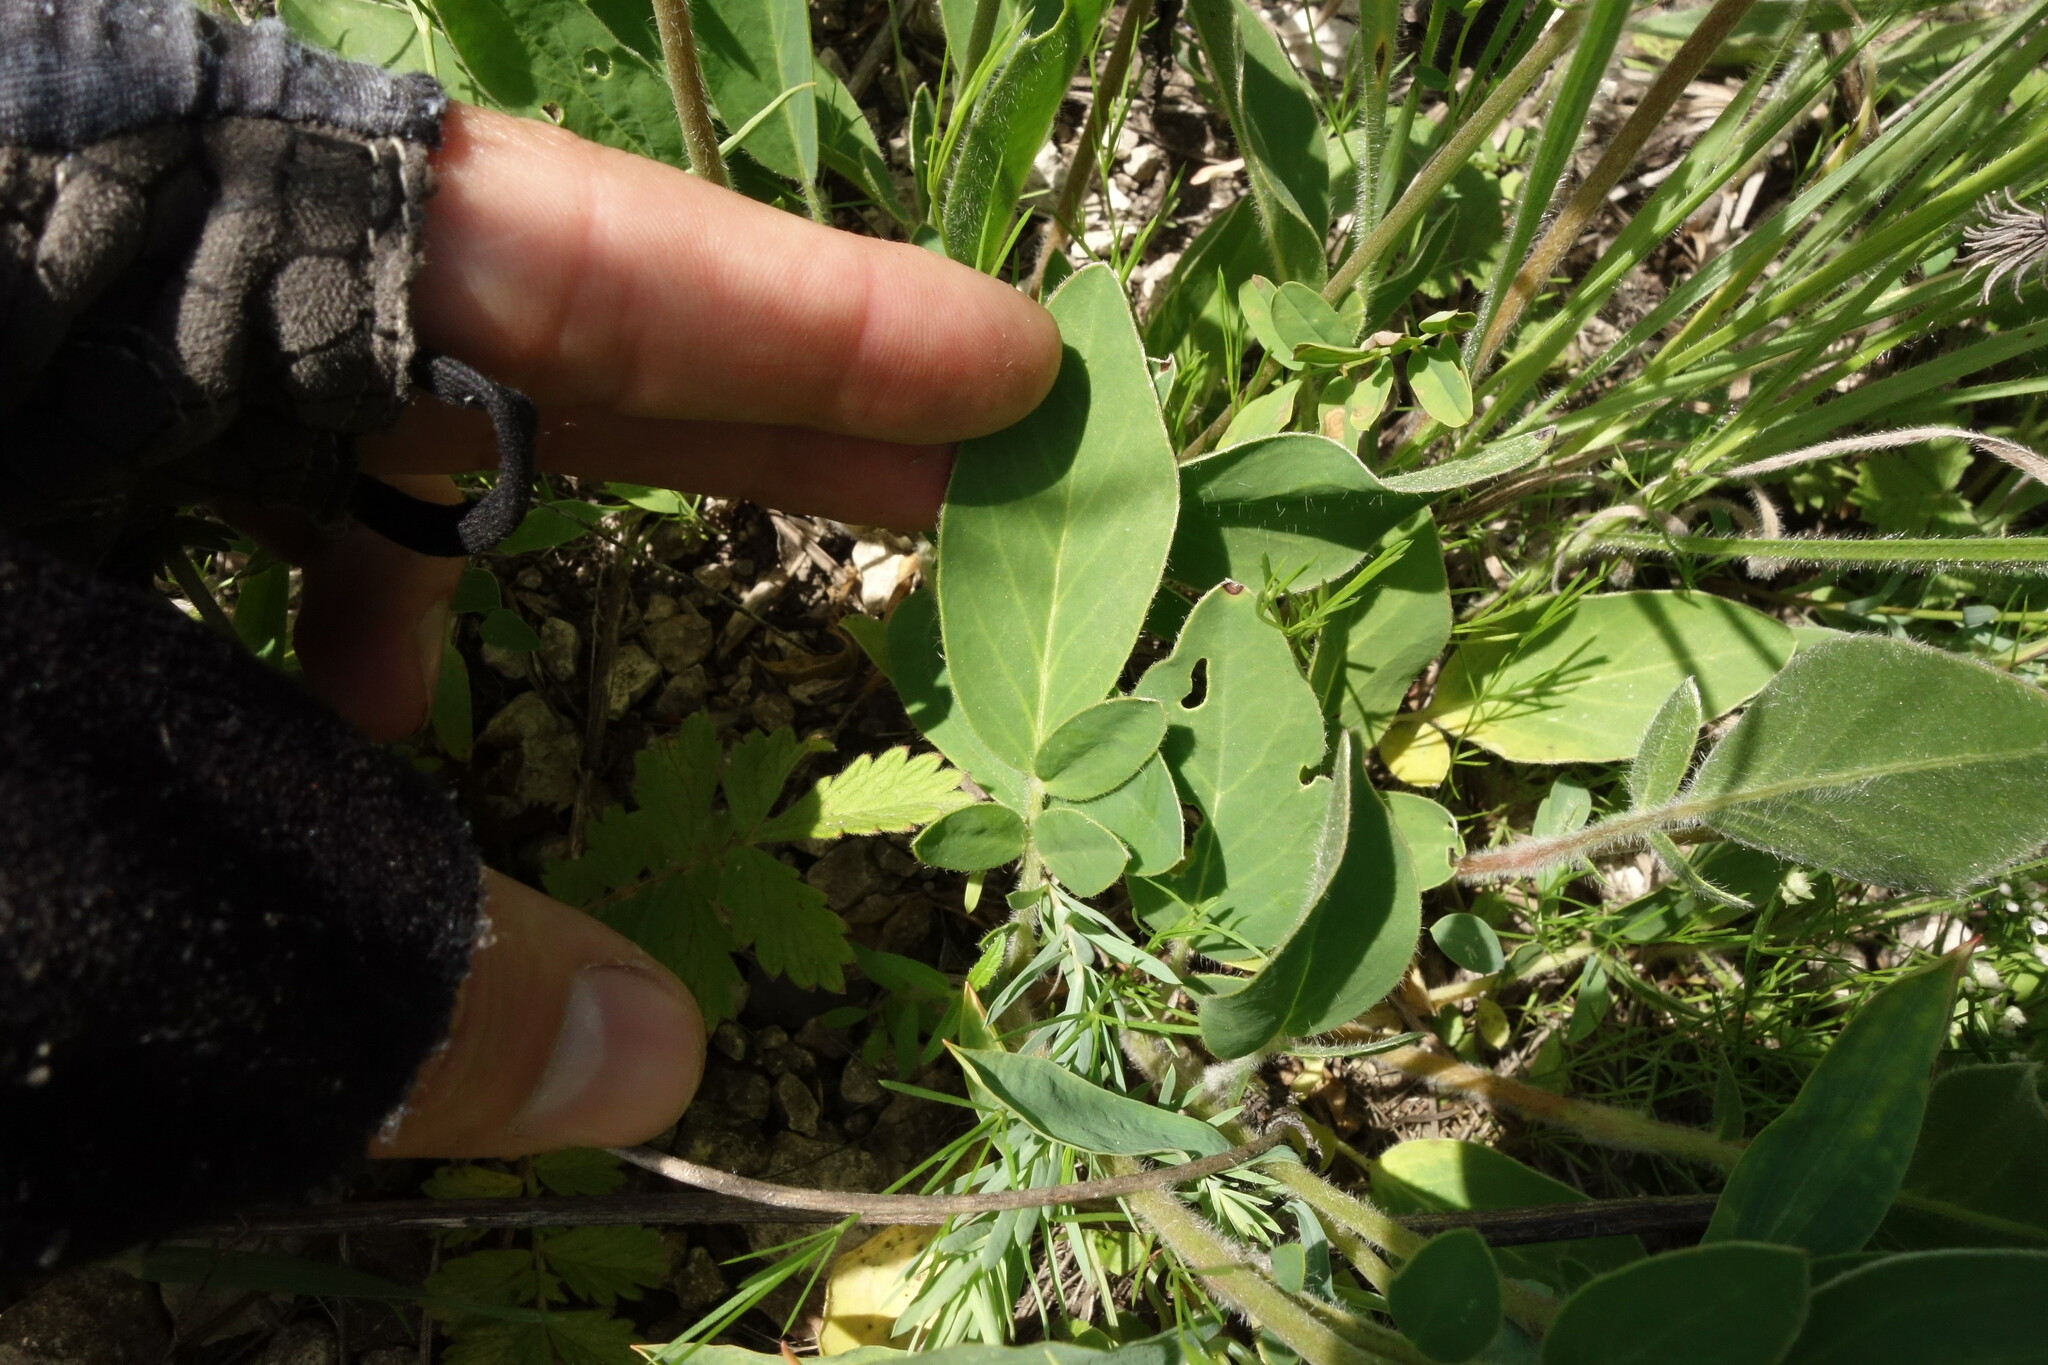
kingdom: Plantae
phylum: Tracheophyta
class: Magnoliopsida
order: Fabales
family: Fabaceae
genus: Anthyllis
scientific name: Anthyllis vulneraria
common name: Kidney vetch
